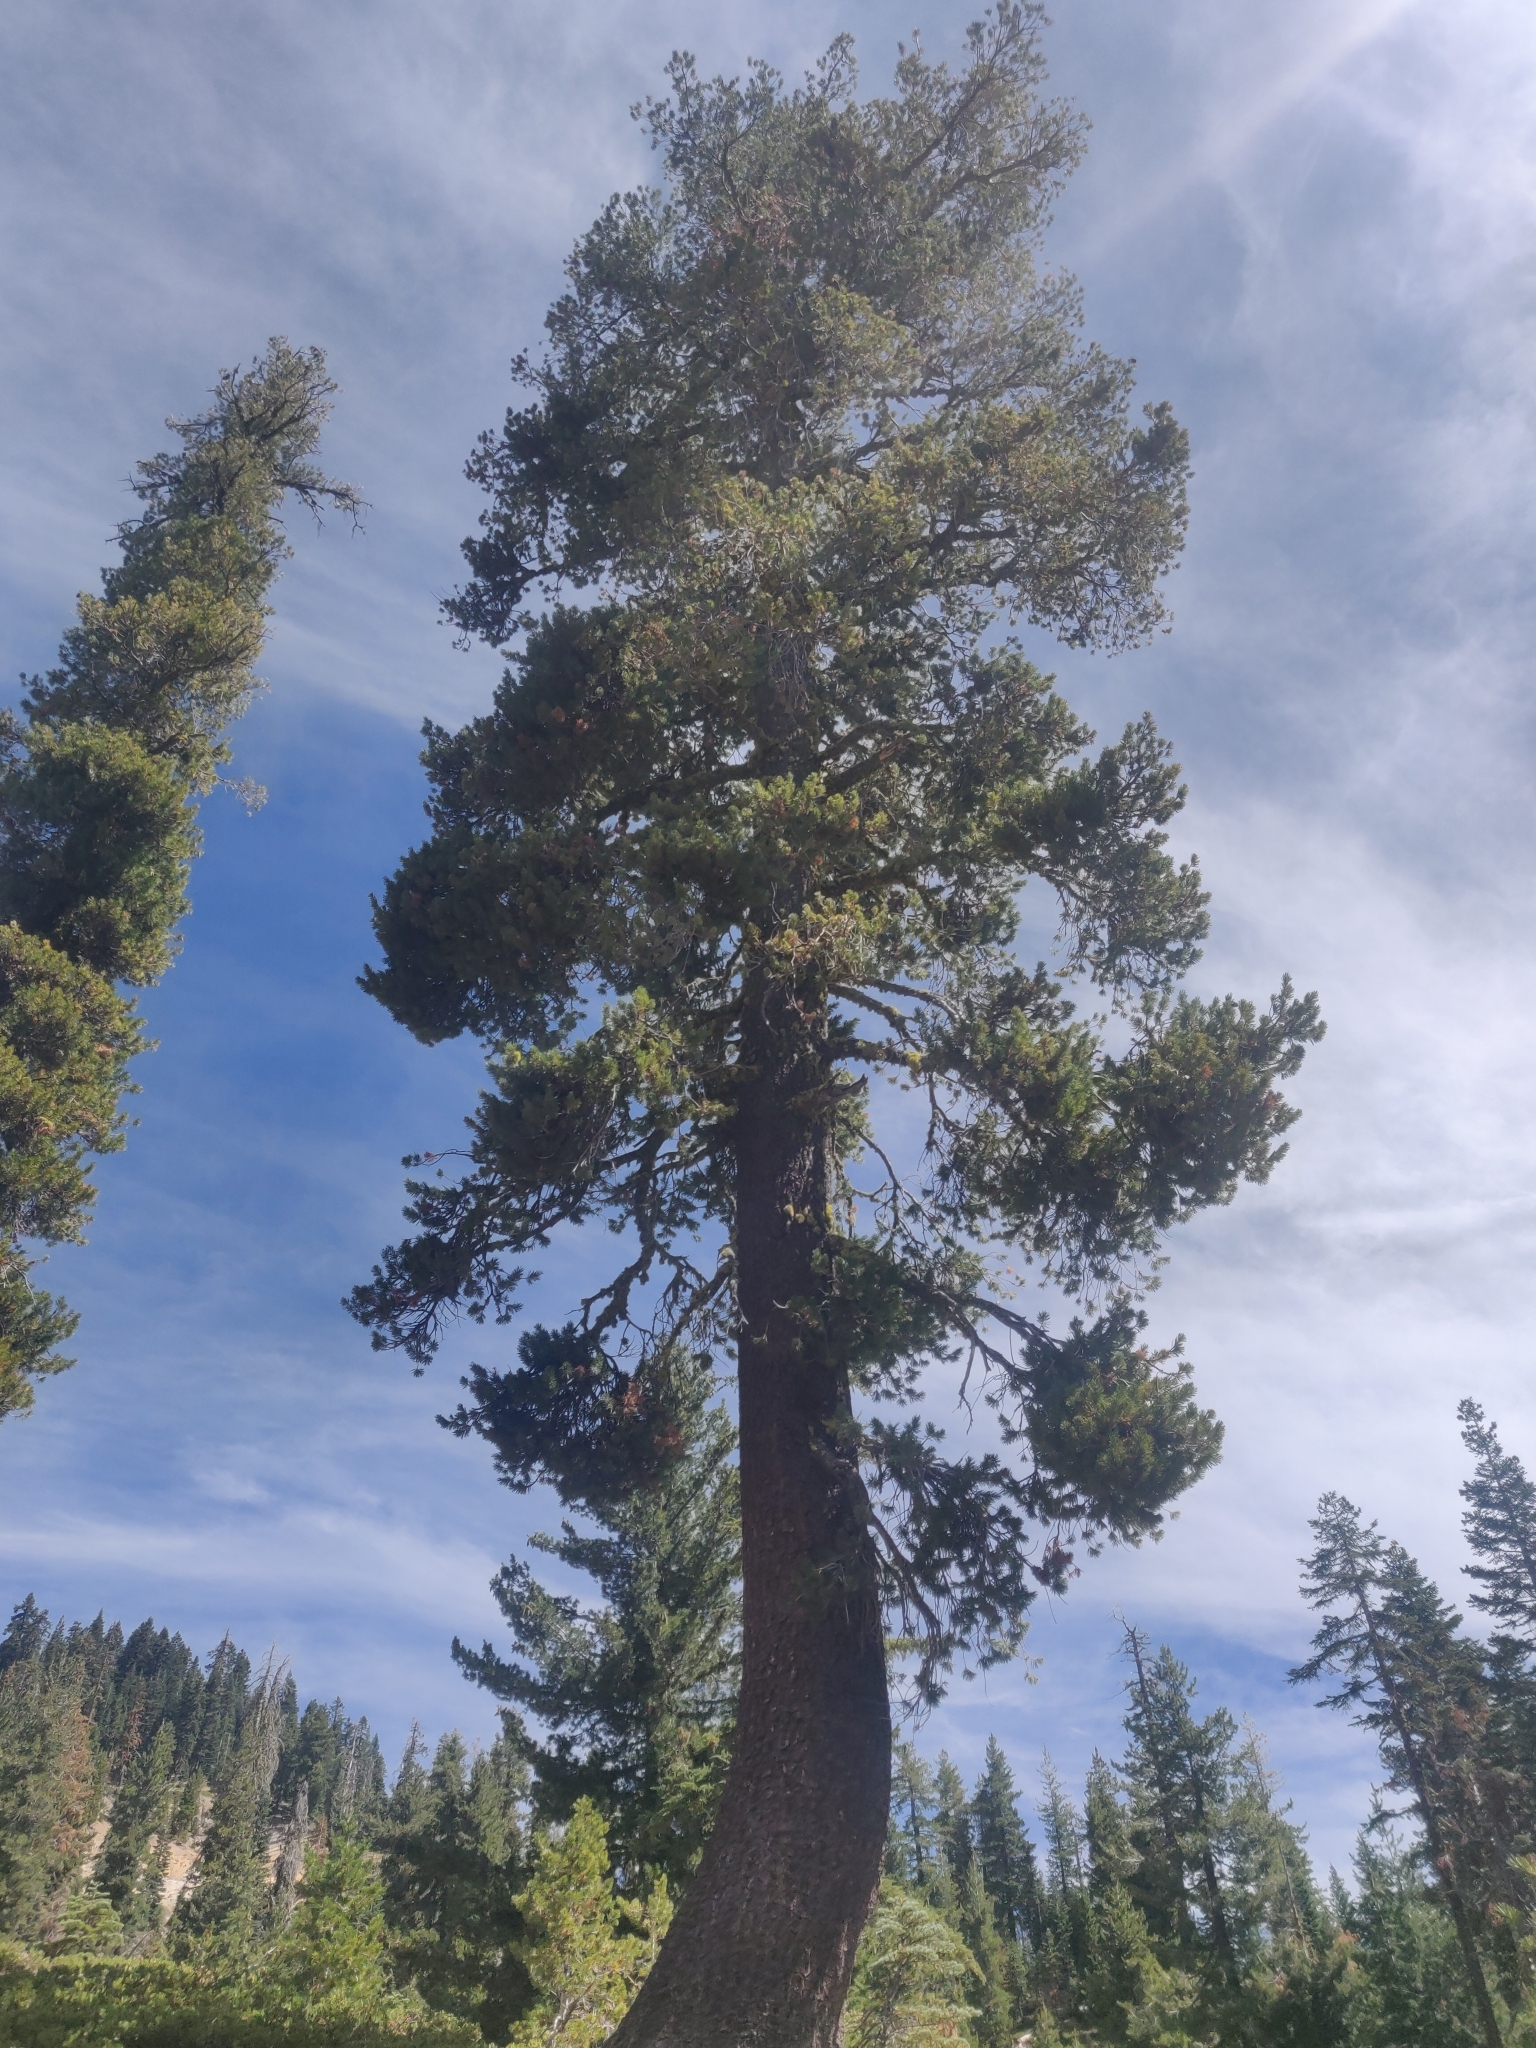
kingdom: Plantae
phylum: Tracheophyta
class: Pinopsida
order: Pinales
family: Pinaceae
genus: Pinus
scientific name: Pinus monticola
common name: Western white pine
